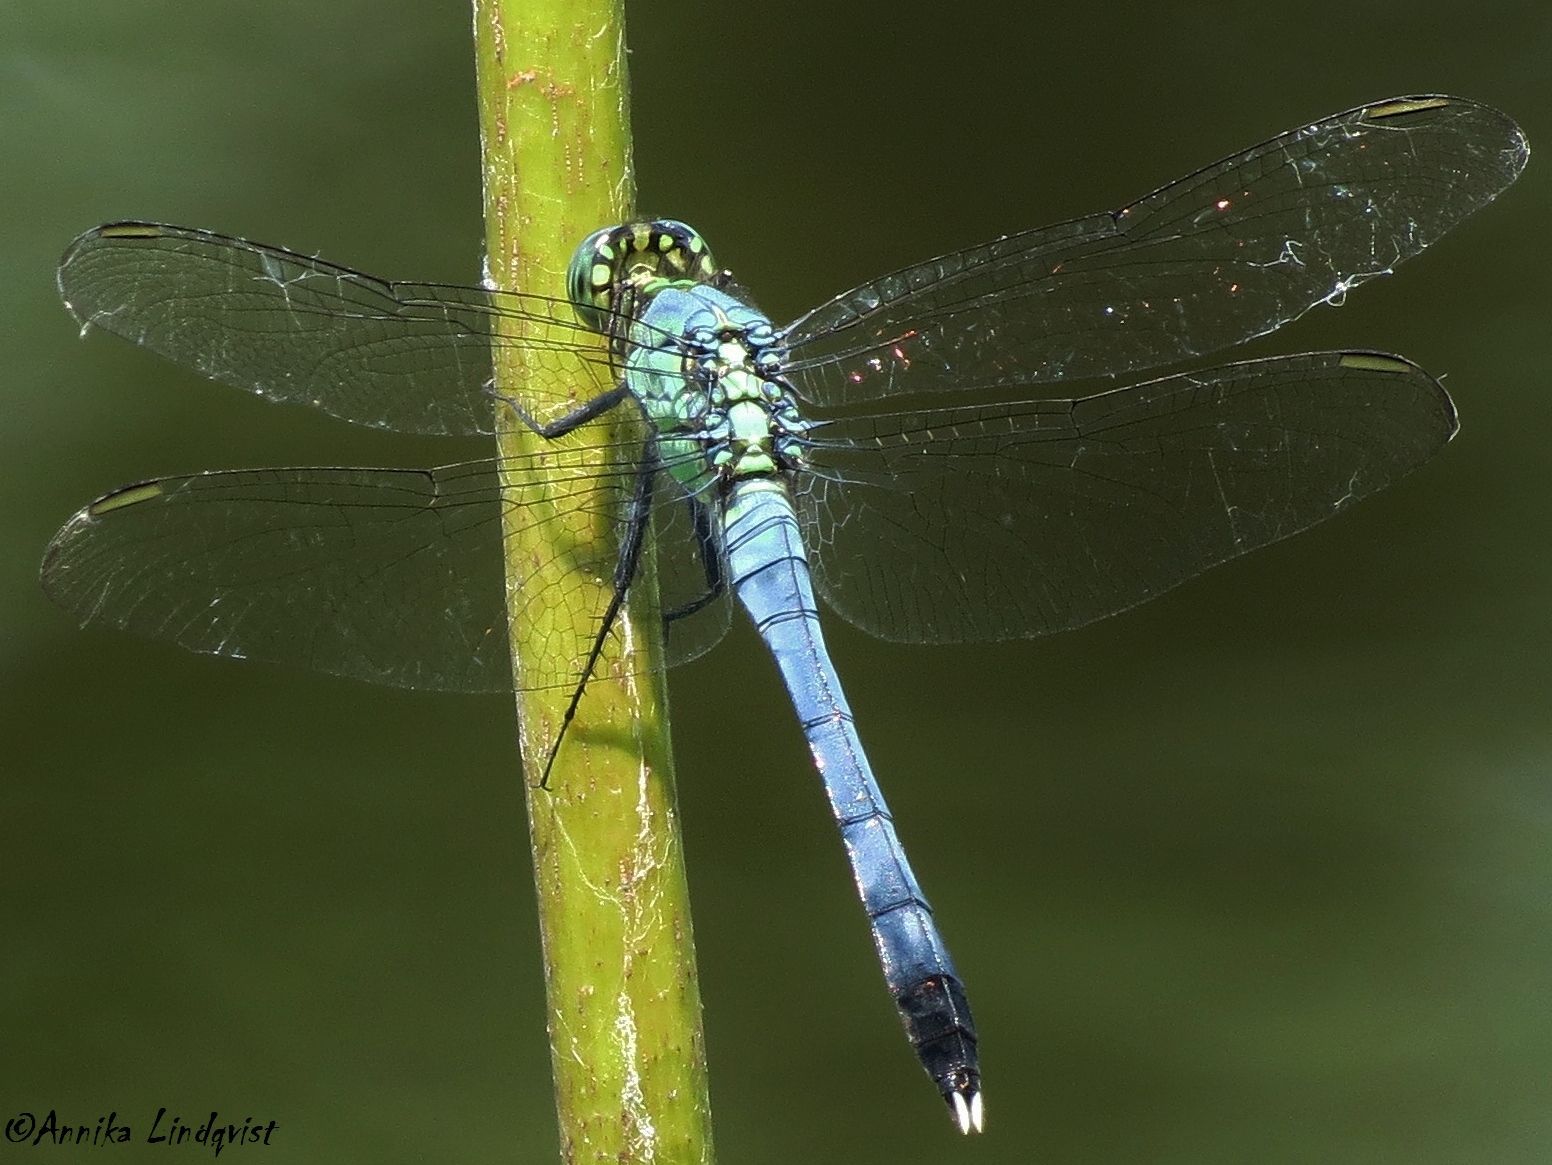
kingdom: Animalia
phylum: Arthropoda
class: Insecta
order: Odonata
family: Libellulidae
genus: Erythemis
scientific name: Erythemis simplicicollis
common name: Eastern pondhawk
